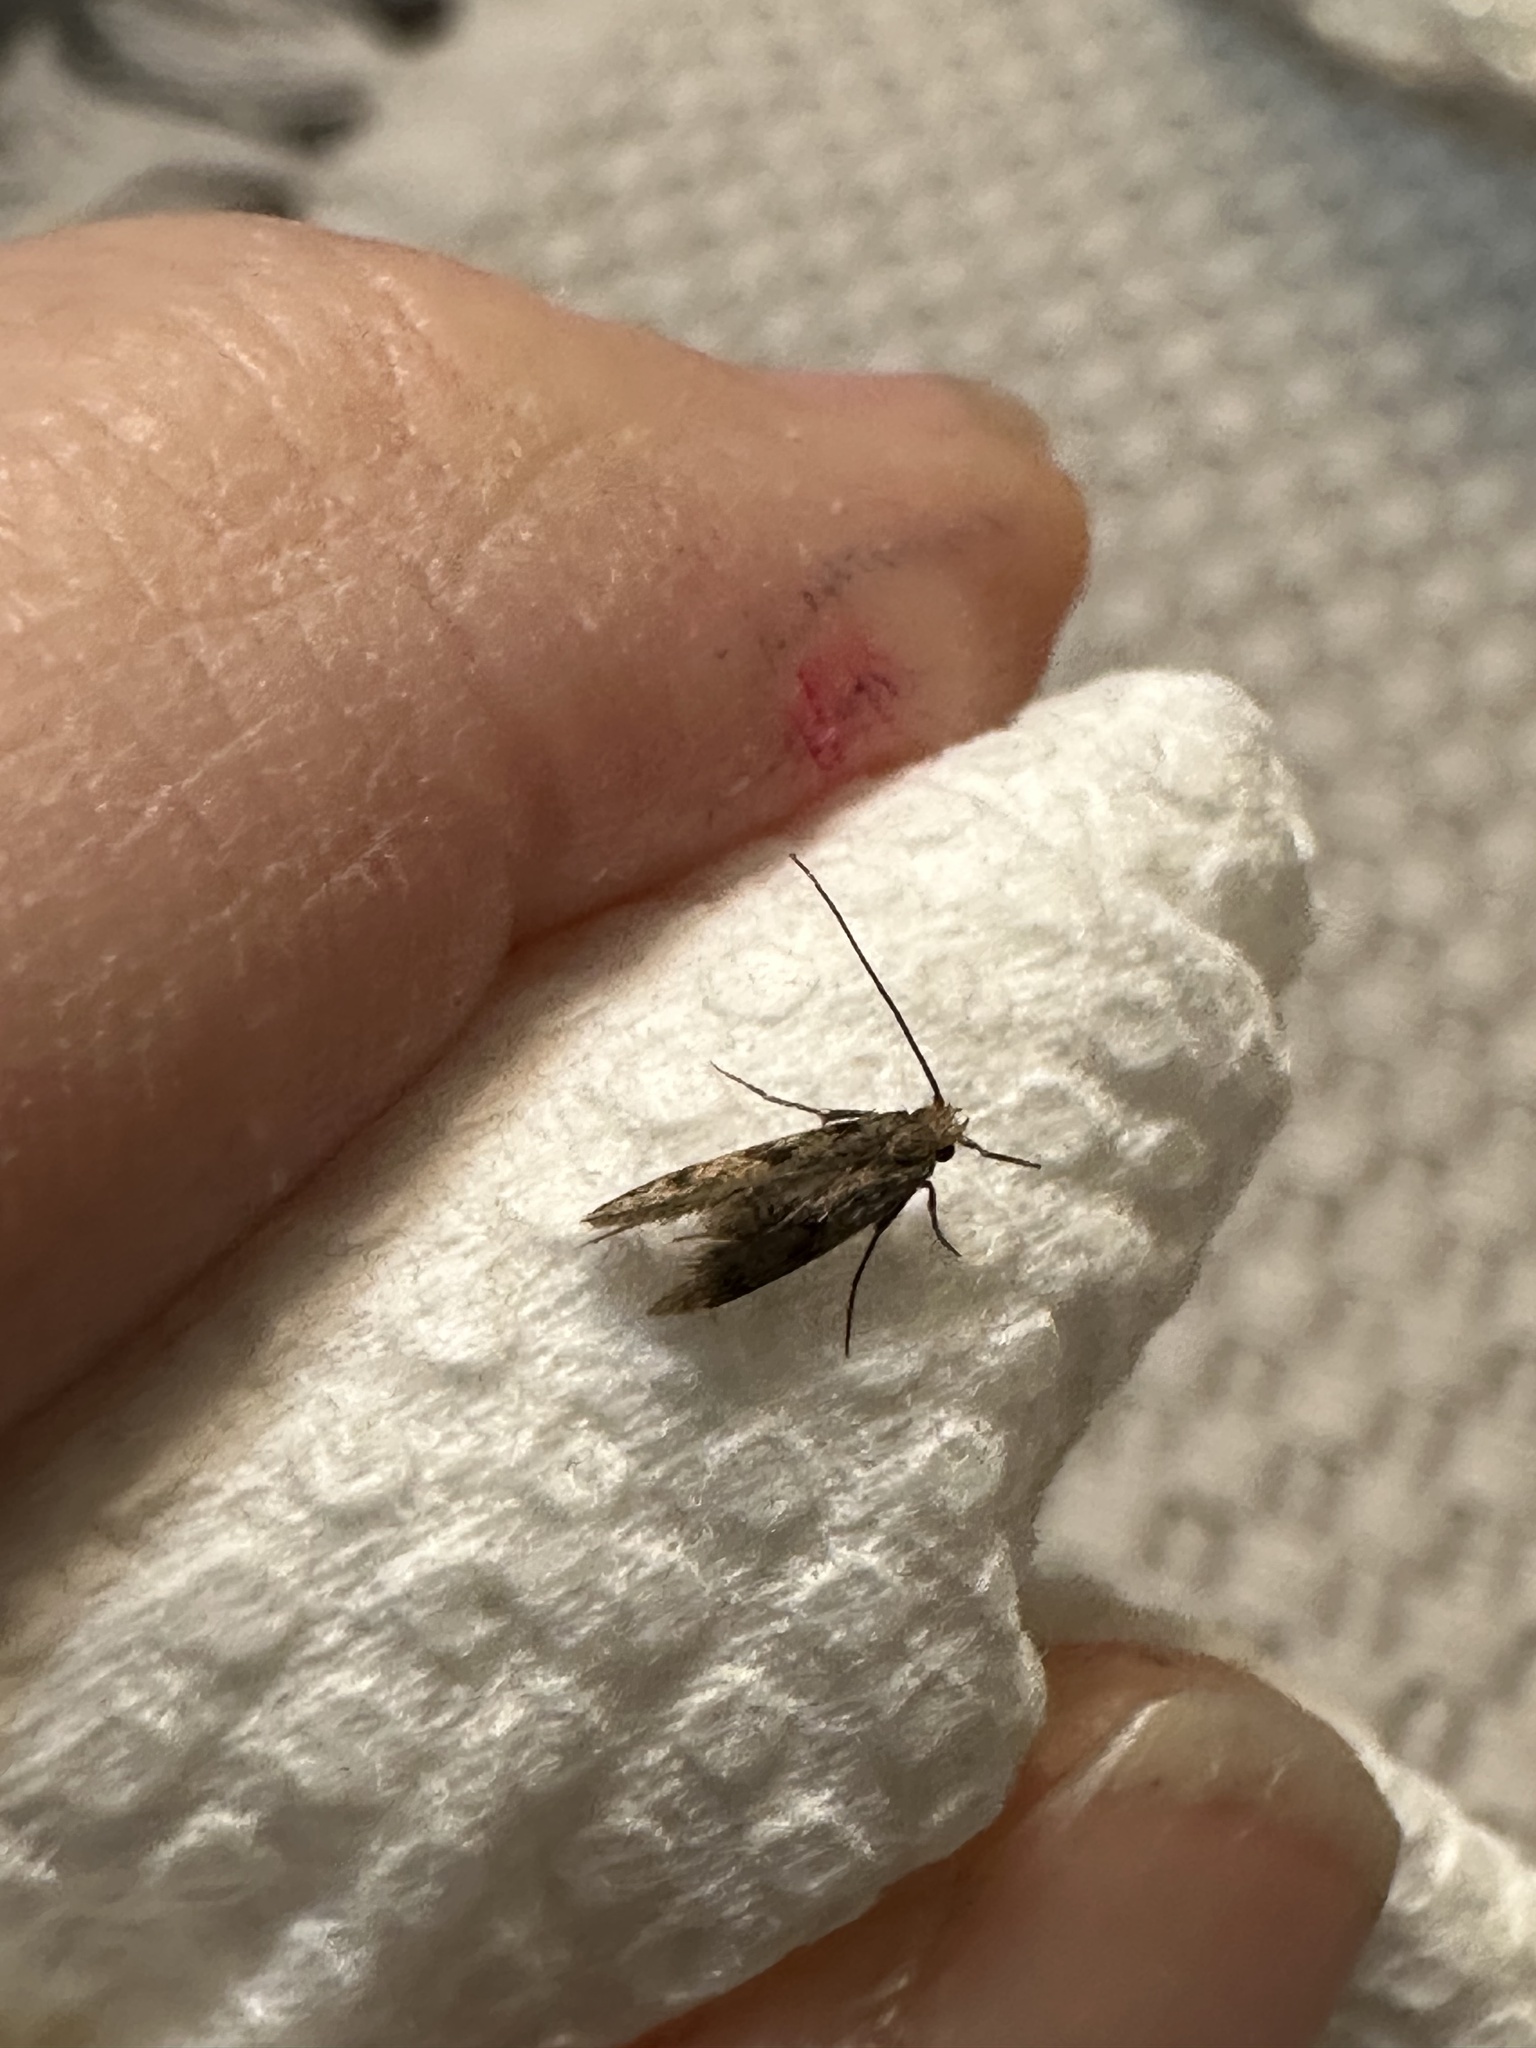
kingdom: Animalia
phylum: Arthropoda
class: Insecta
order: Lepidoptera
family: Tineidae
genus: Phereoeca
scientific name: Phereoeca uterella
